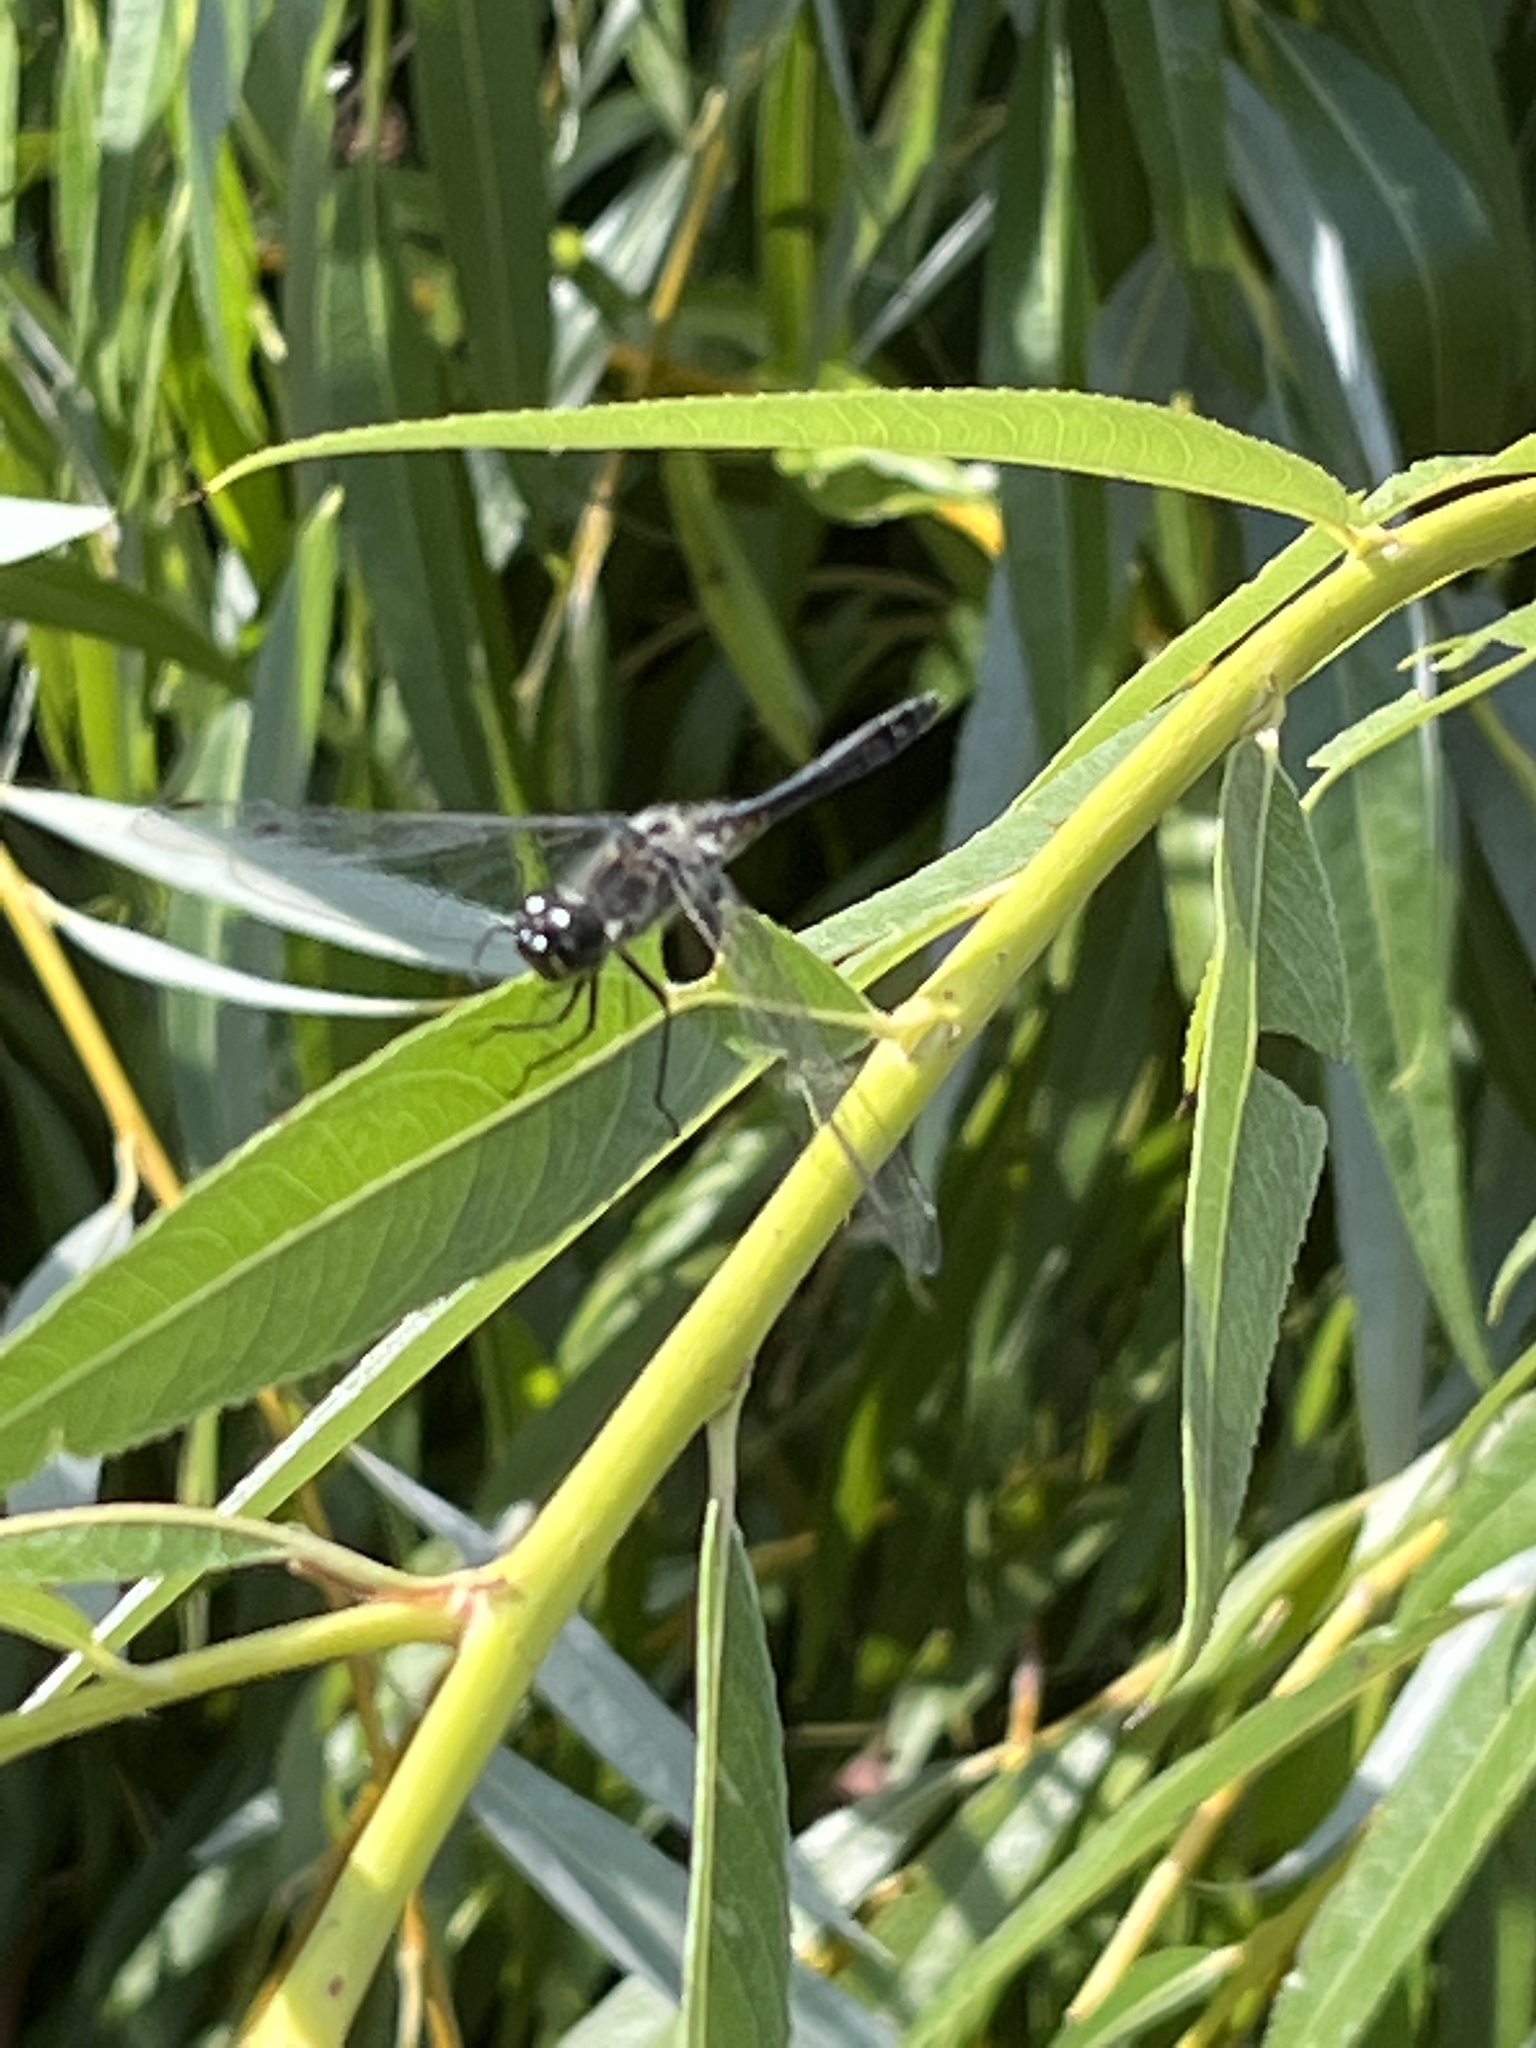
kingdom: Animalia
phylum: Arthropoda
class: Insecta
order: Odonata
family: Libellulidae
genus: Sympetrum
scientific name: Sympetrum danae
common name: Black darter
